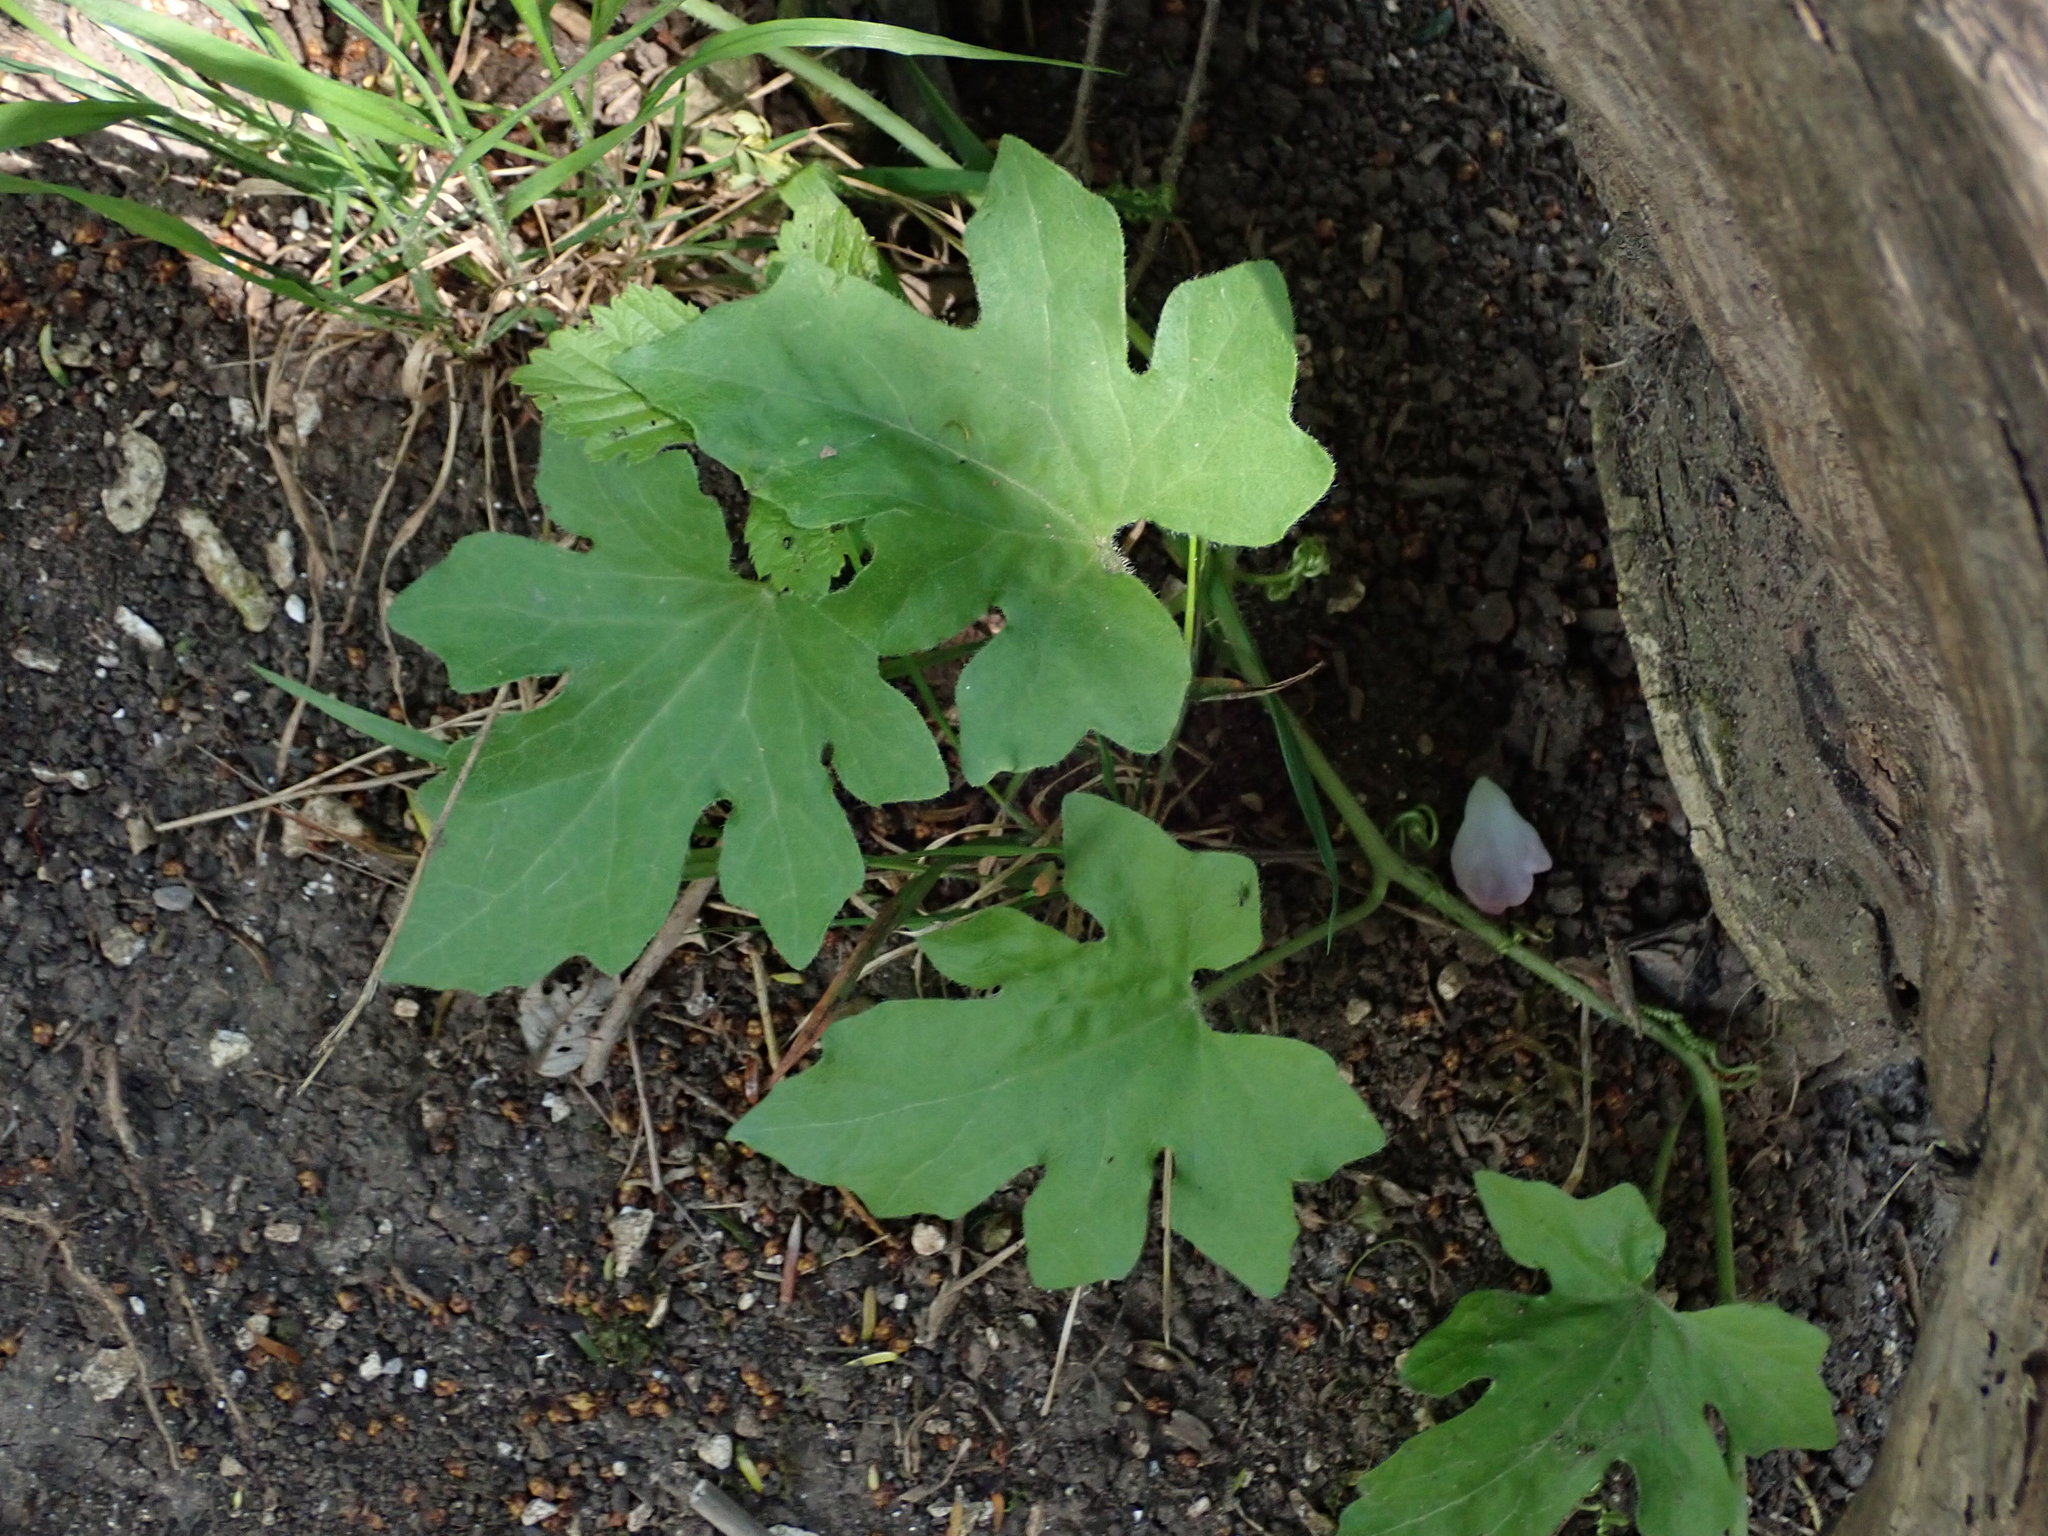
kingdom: Plantae
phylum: Tracheophyta
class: Magnoliopsida
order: Cucurbitales
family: Cucurbitaceae
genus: Bryonia
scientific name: Bryonia cretica
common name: Cretan bryony
